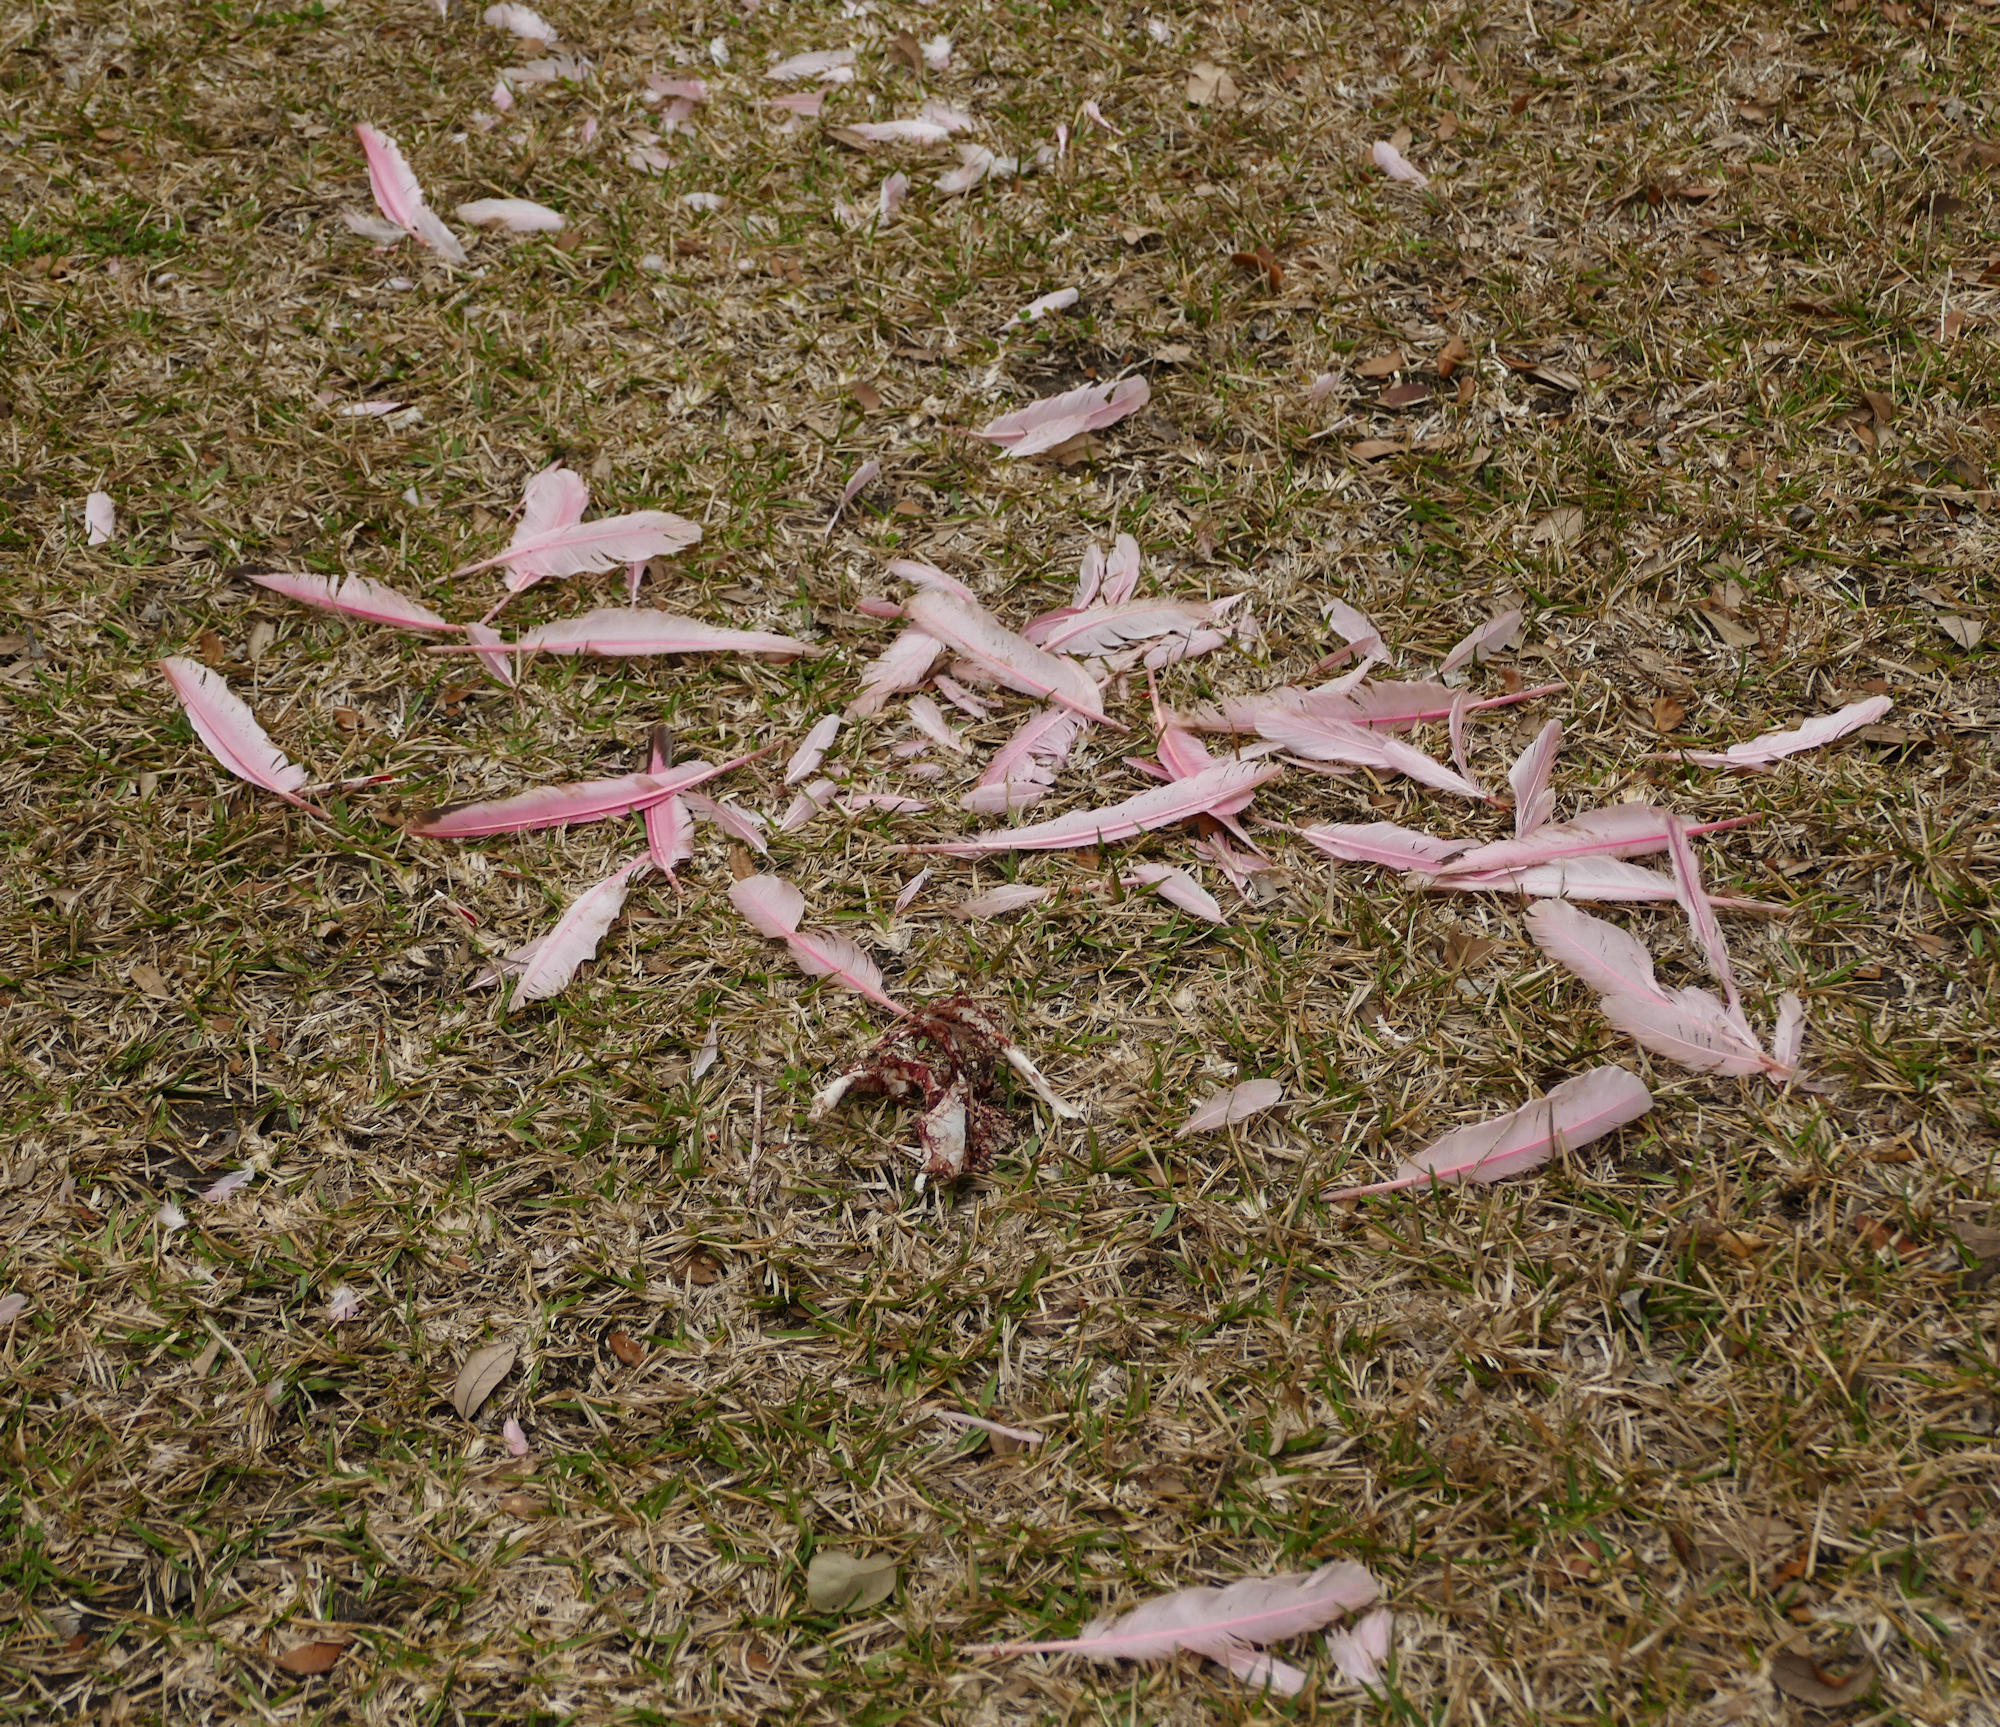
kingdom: Animalia
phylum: Chordata
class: Aves
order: Pelecaniformes
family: Threskiornithidae
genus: Platalea
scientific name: Platalea ajaja
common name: Roseate spoonbill
